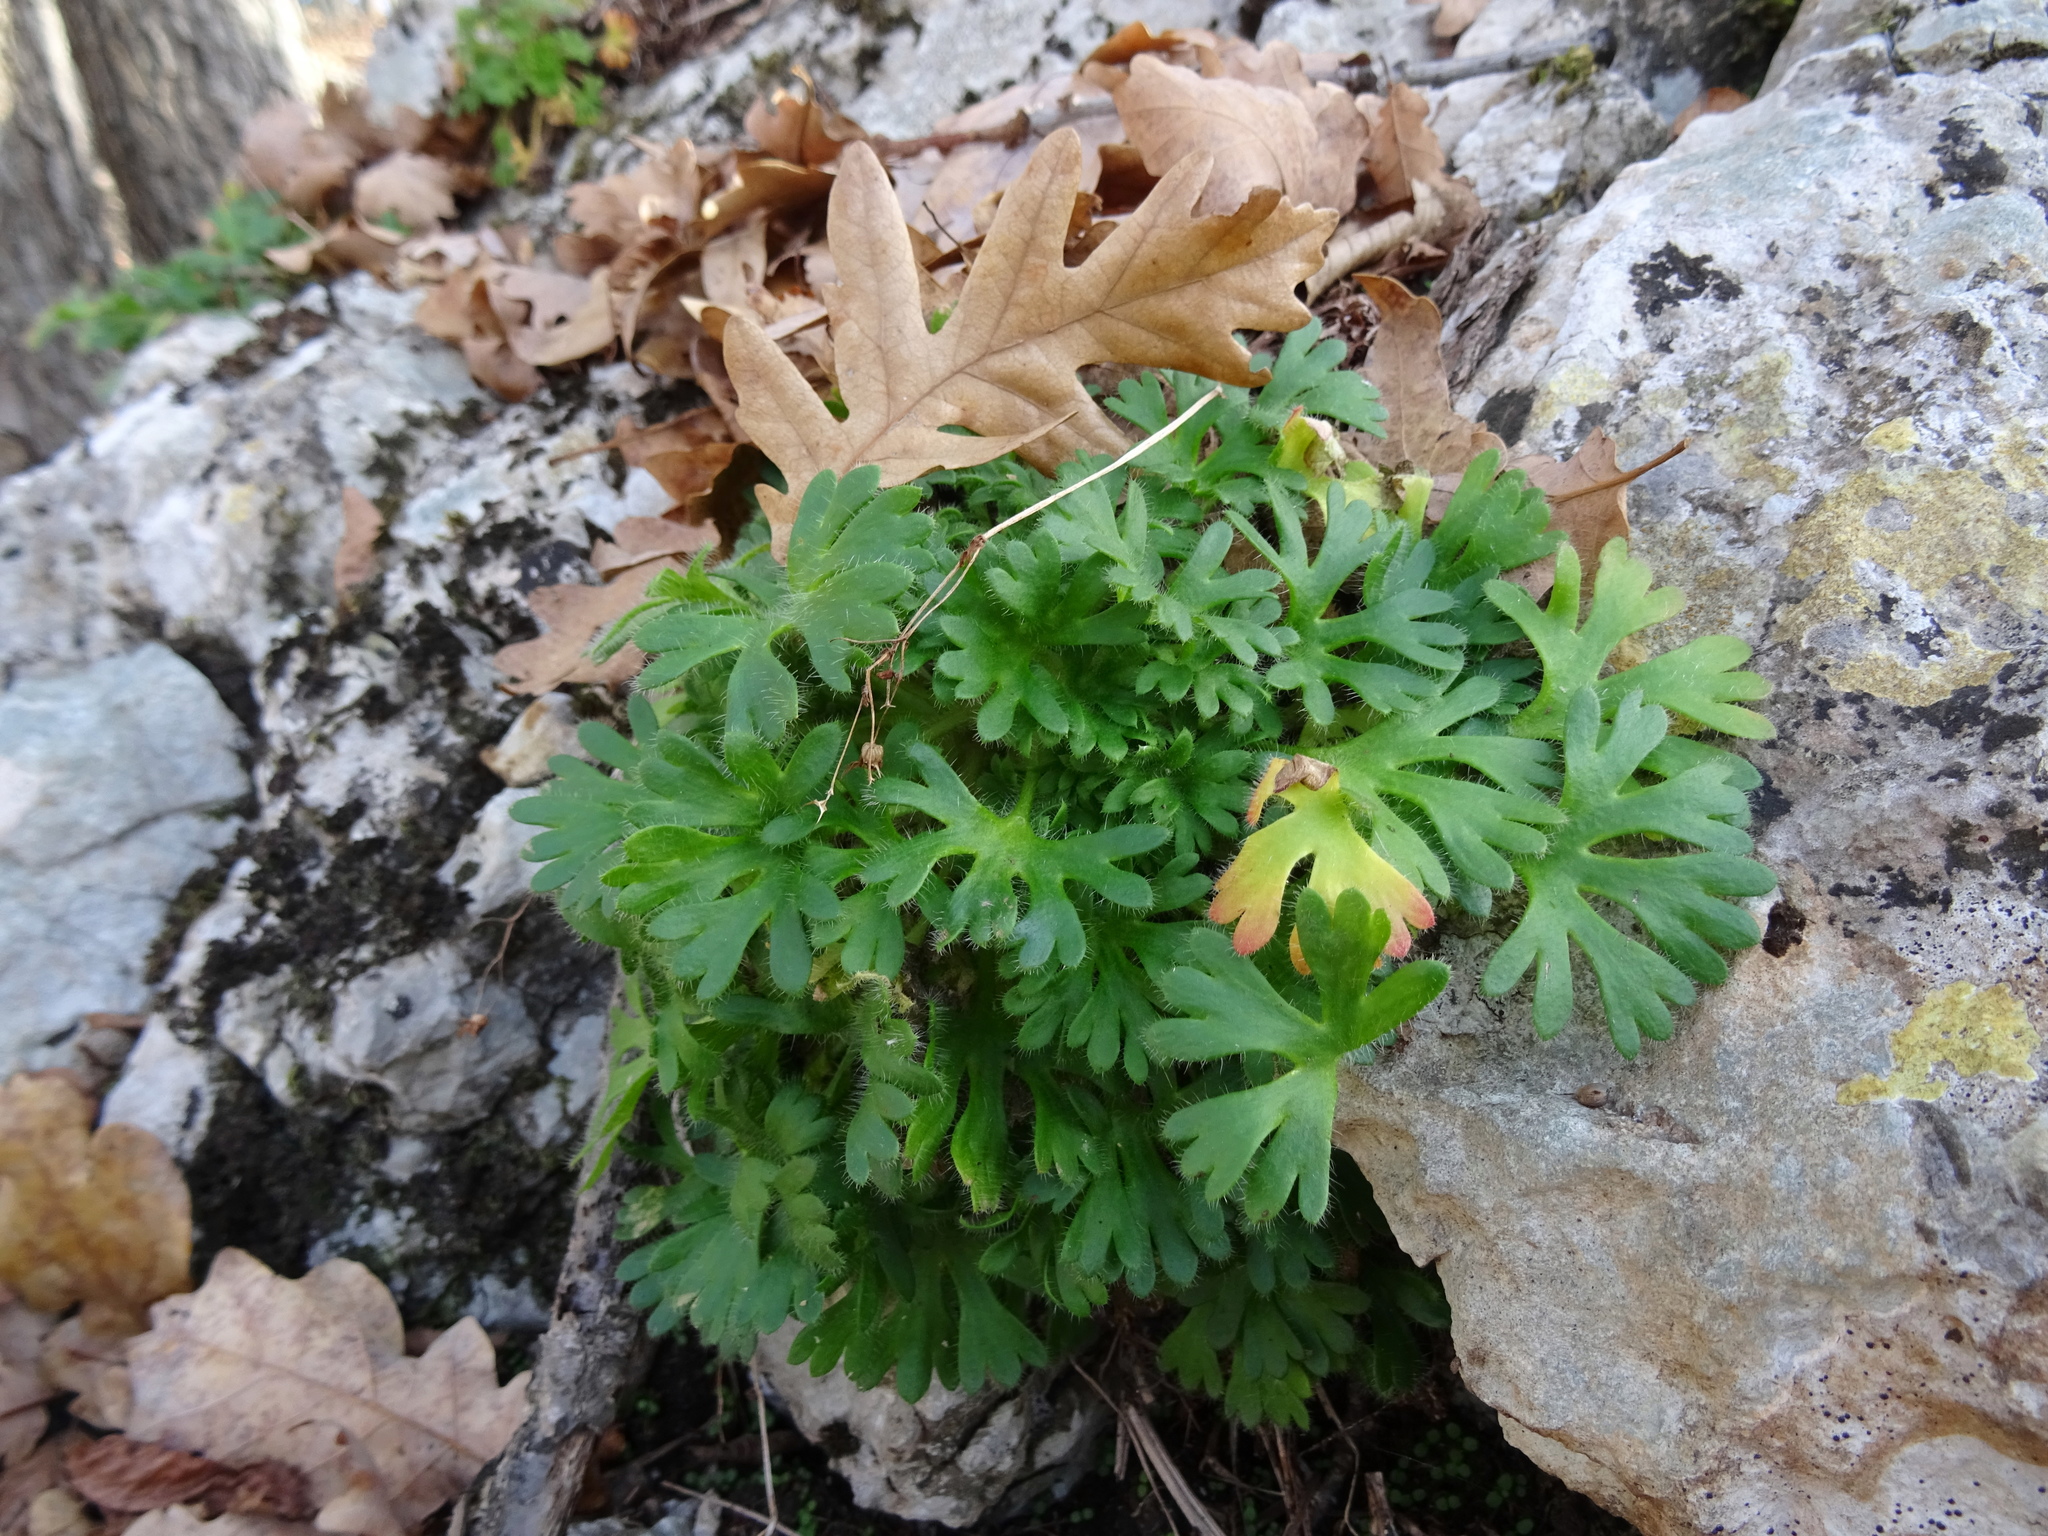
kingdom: Plantae
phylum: Tracheophyta
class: Magnoliopsida
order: Saxifragales
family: Saxifragaceae
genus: Saxifraga
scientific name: Saxifraga irrigua
